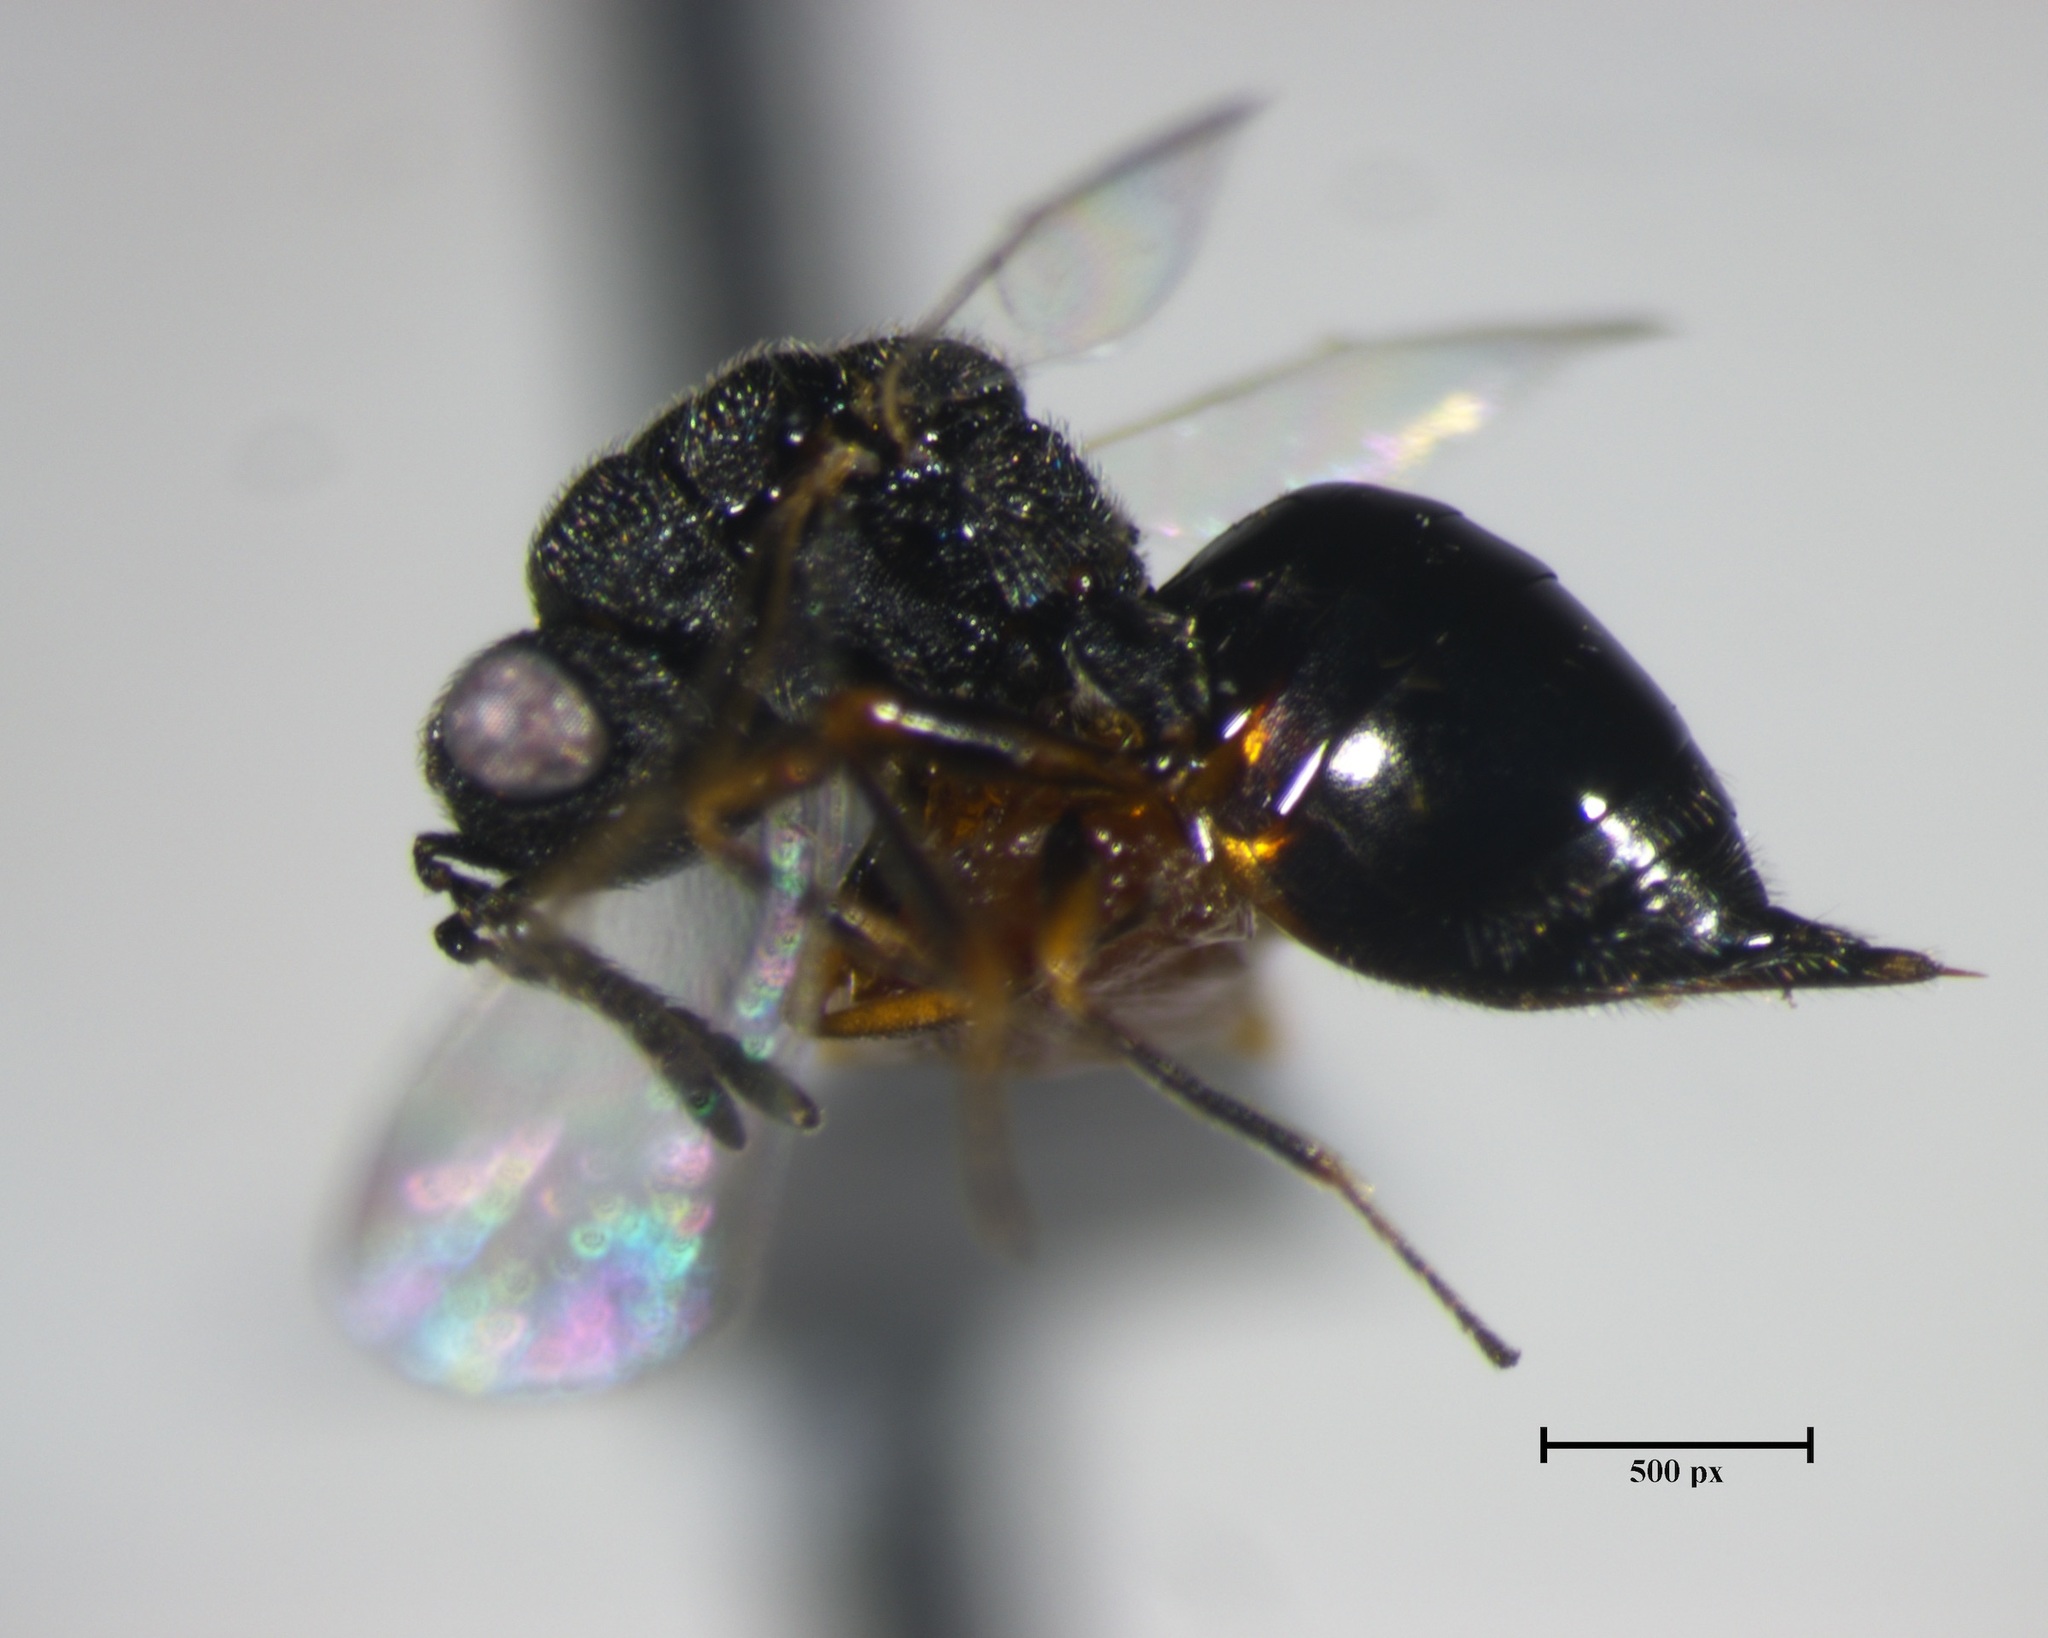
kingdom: Animalia
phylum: Arthropoda
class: Insecta
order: Hymenoptera
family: Eurytomidae
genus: Eurytoma
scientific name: Eurytoma discordans
